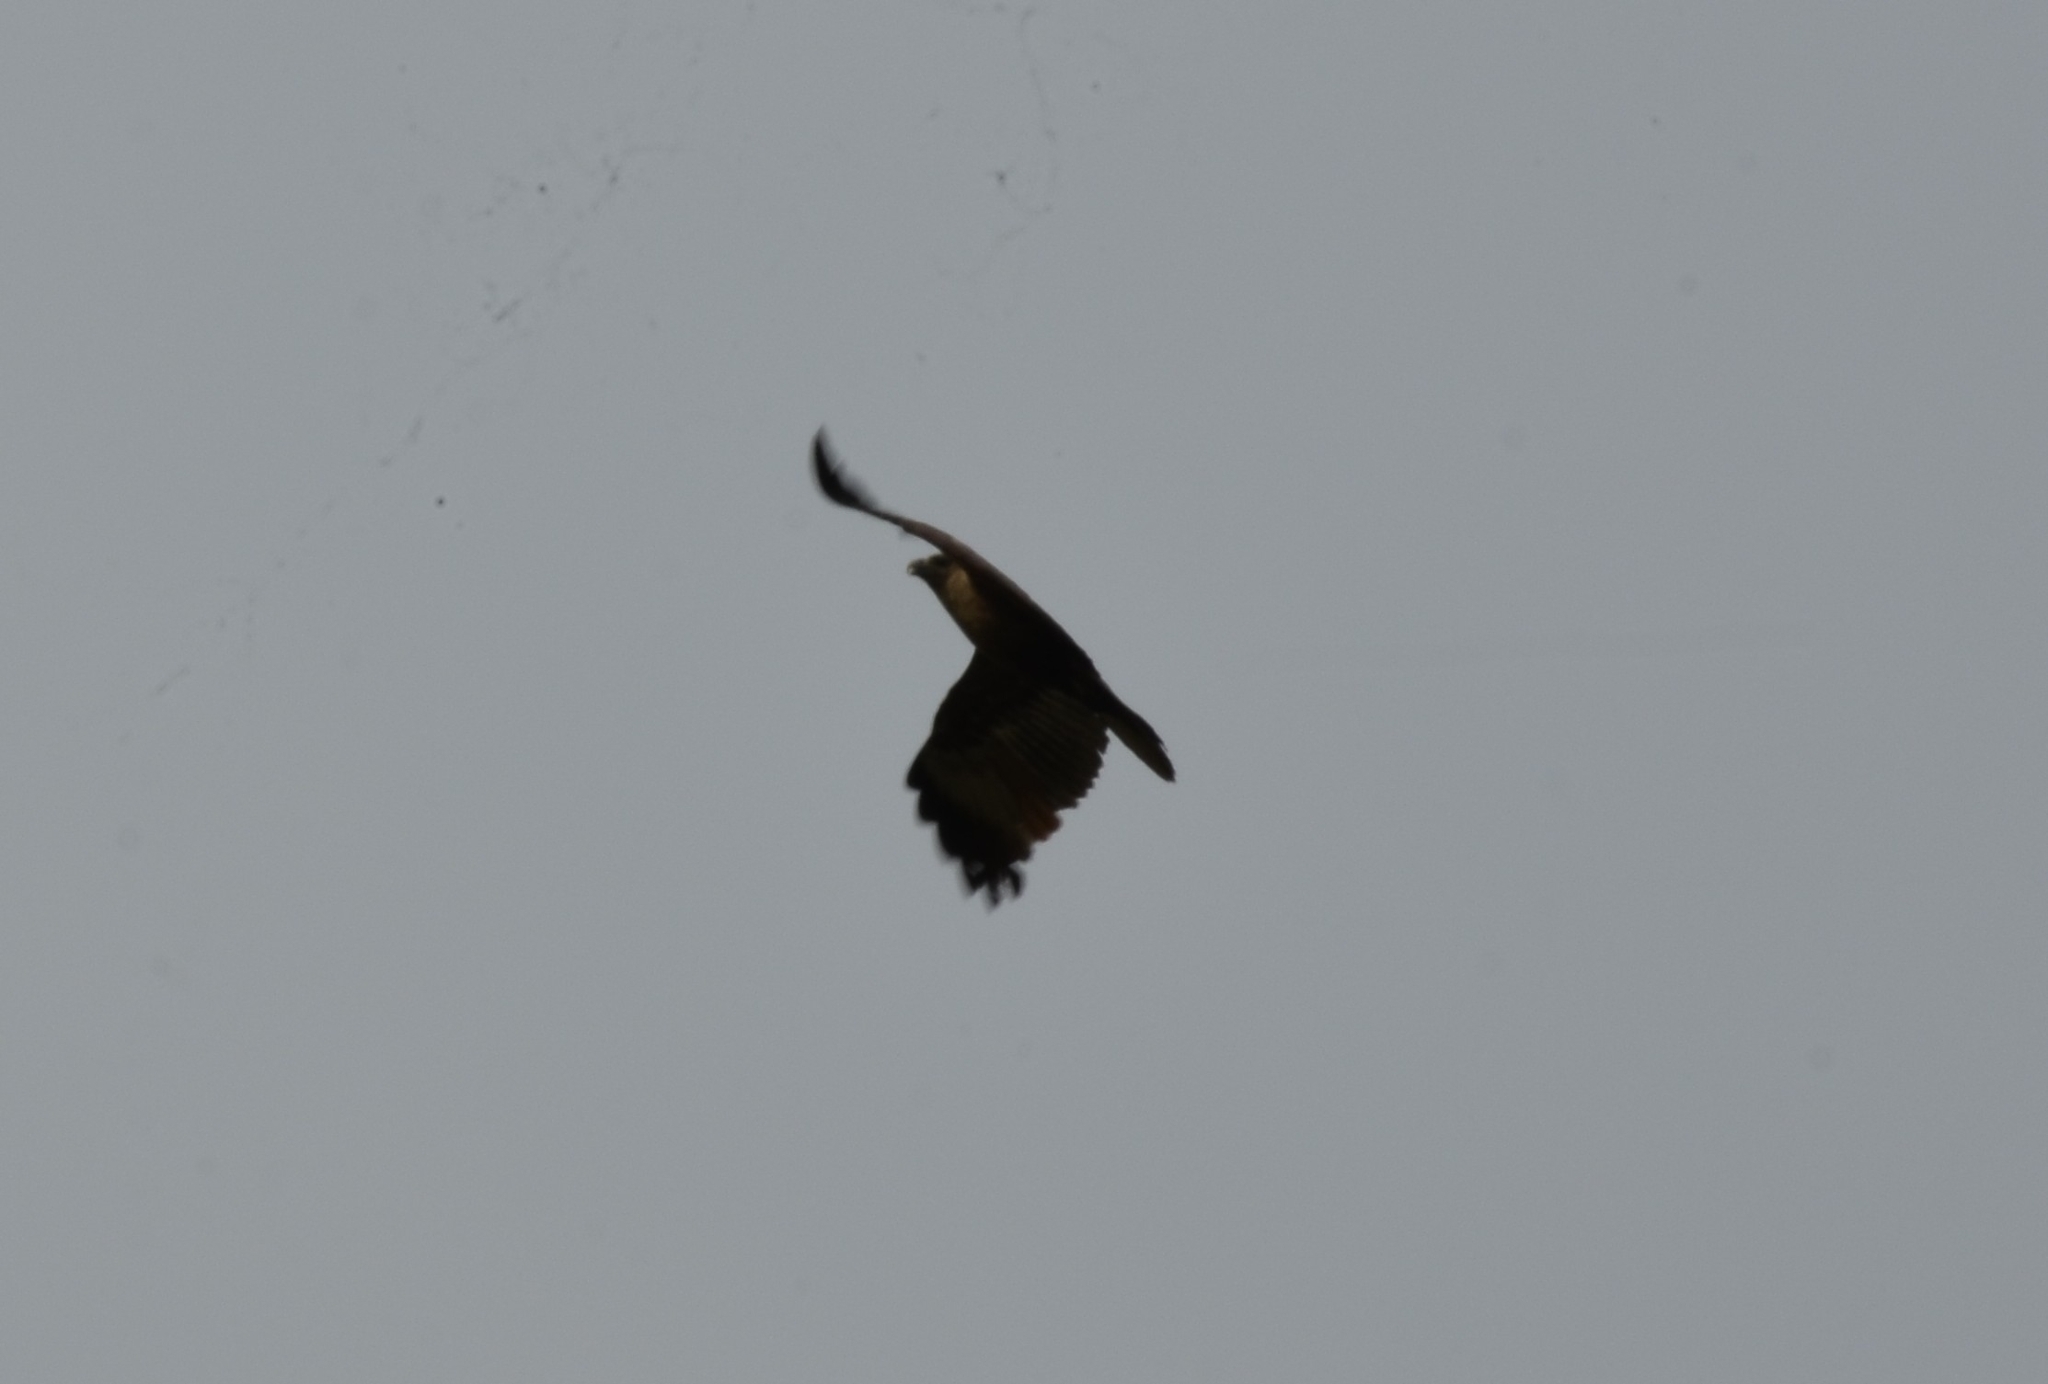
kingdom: Animalia
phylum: Chordata
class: Aves
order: Passeriformes
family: Corvidae
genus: Corvus
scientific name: Corvus splendens
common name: House crow
